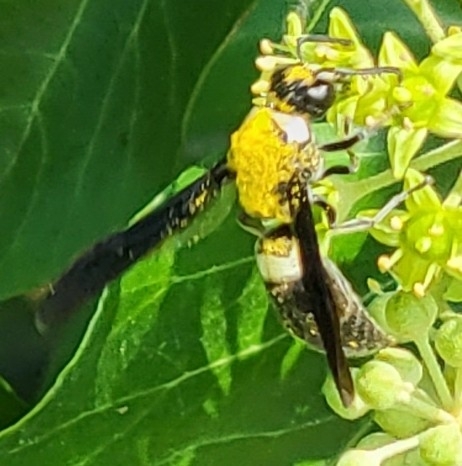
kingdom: Animalia
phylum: Arthropoda
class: Insecta
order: Hymenoptera
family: Eumenidae
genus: Monobia
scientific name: Monobia quadridens
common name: Four-toothed mason wasp
